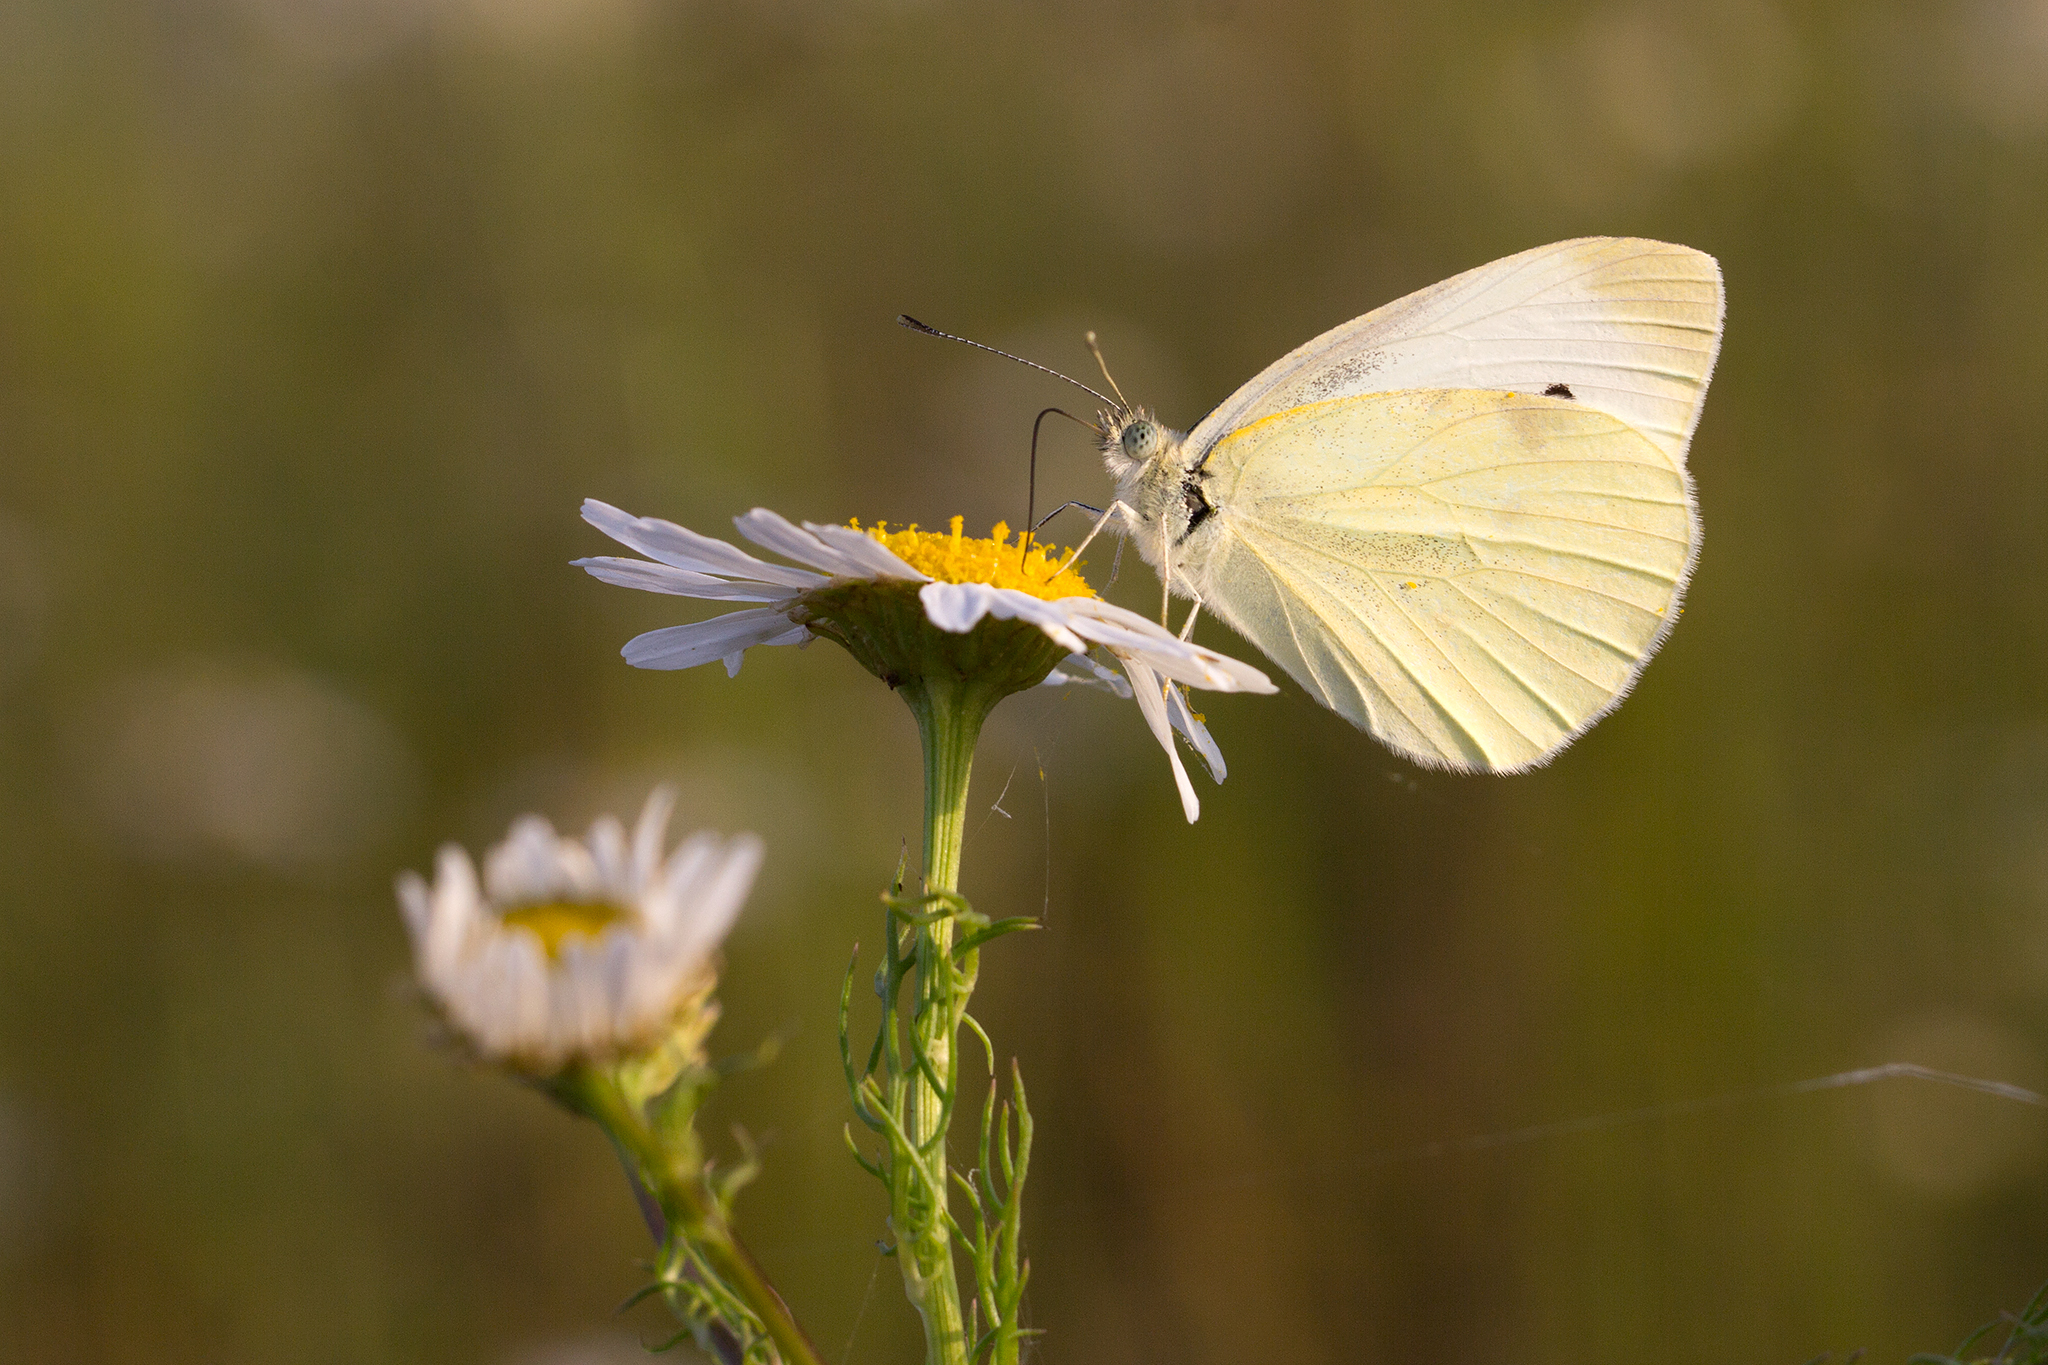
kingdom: Animalia
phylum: Arthropoda
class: Insecta
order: Lepidoptera
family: Pieridae
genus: Pieris
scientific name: Pieris rapae
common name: Small white
